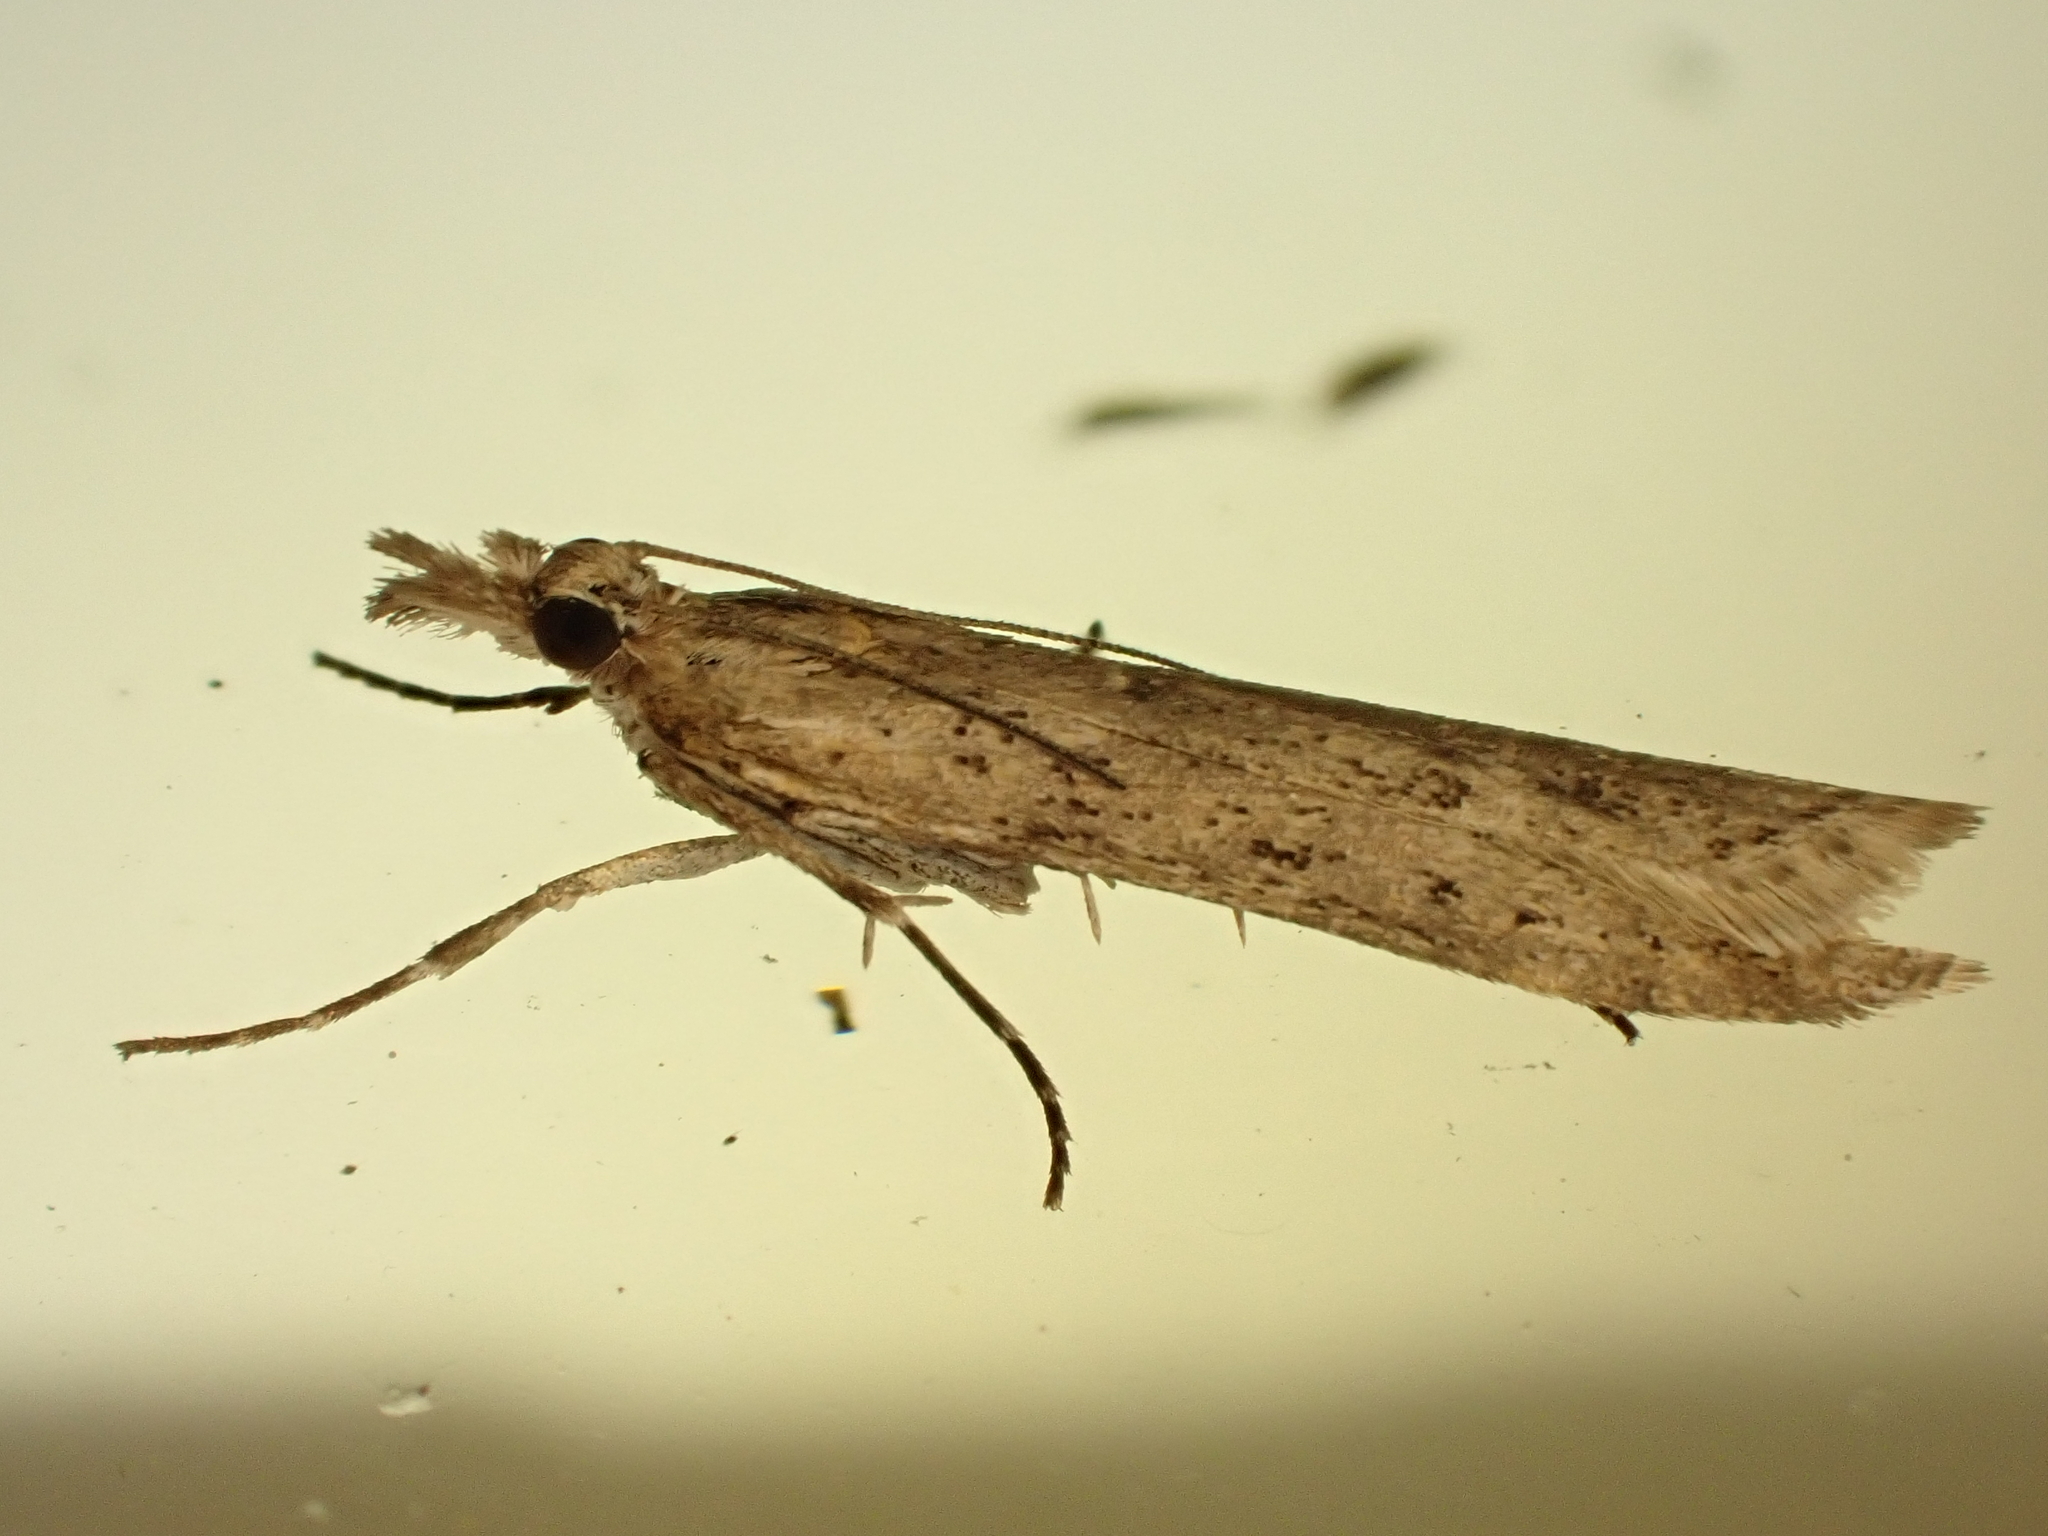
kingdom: Animalia
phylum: Arthropoda
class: Insecta
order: Lepidoptera
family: Crambidae
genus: Eudonia
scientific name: Eudonia leptalea
